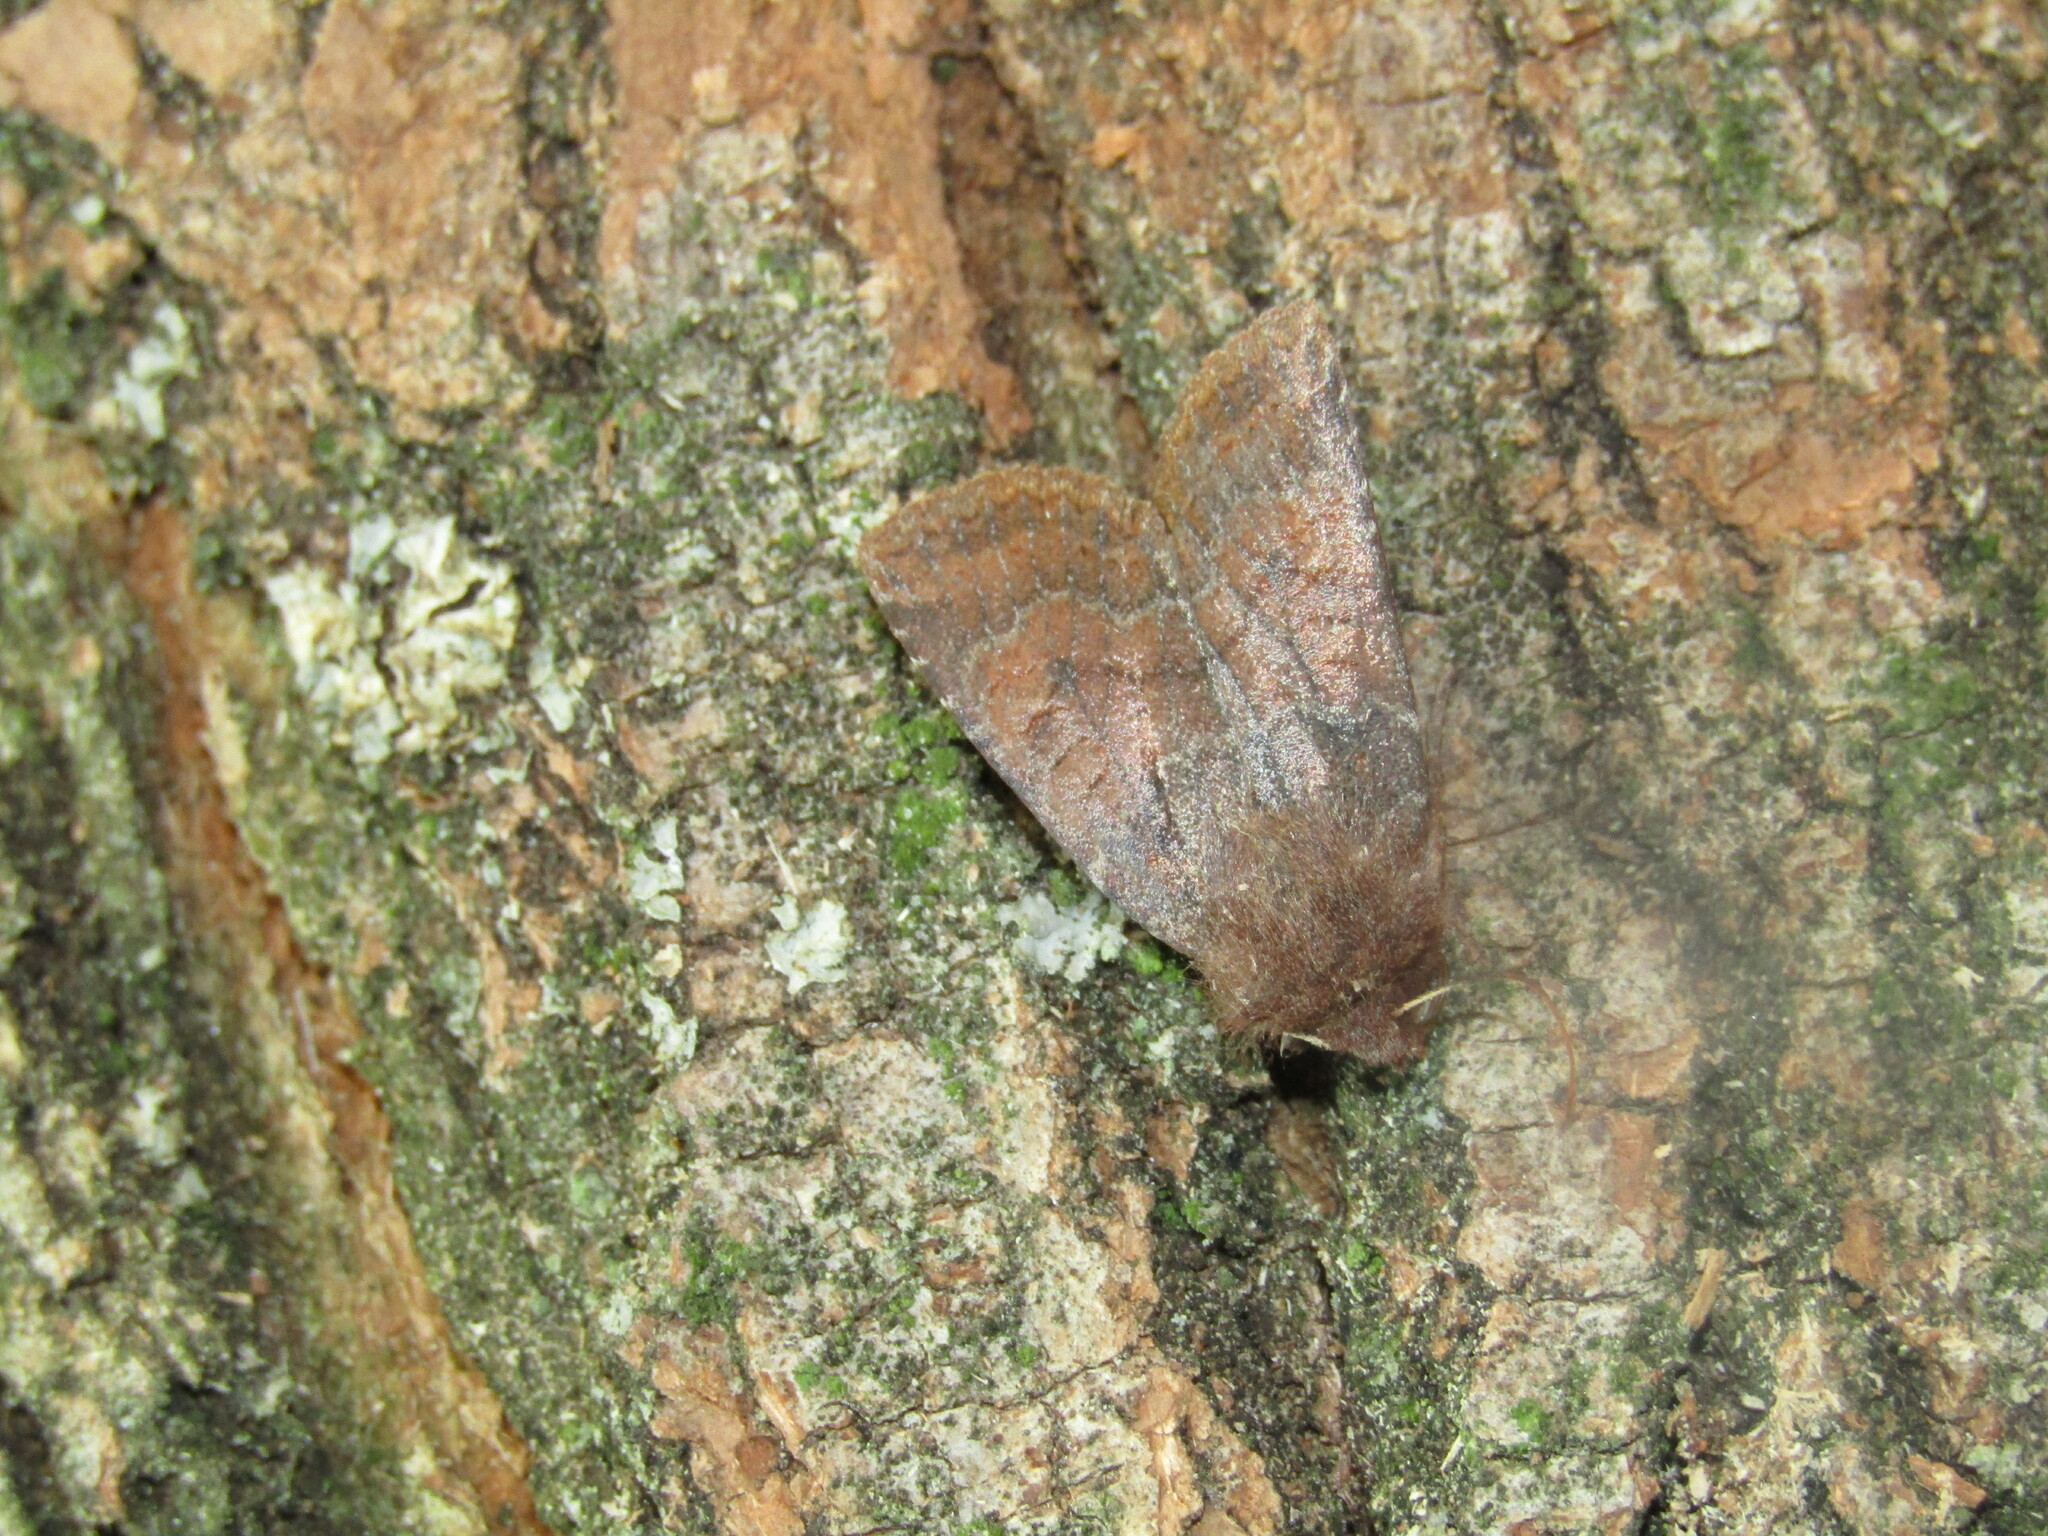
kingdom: Animalia
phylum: Arthropoda
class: Insecta
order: Lepidoptera
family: Noctuidae
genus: Conistra
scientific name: Conistra vaccinii
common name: Chestnut
